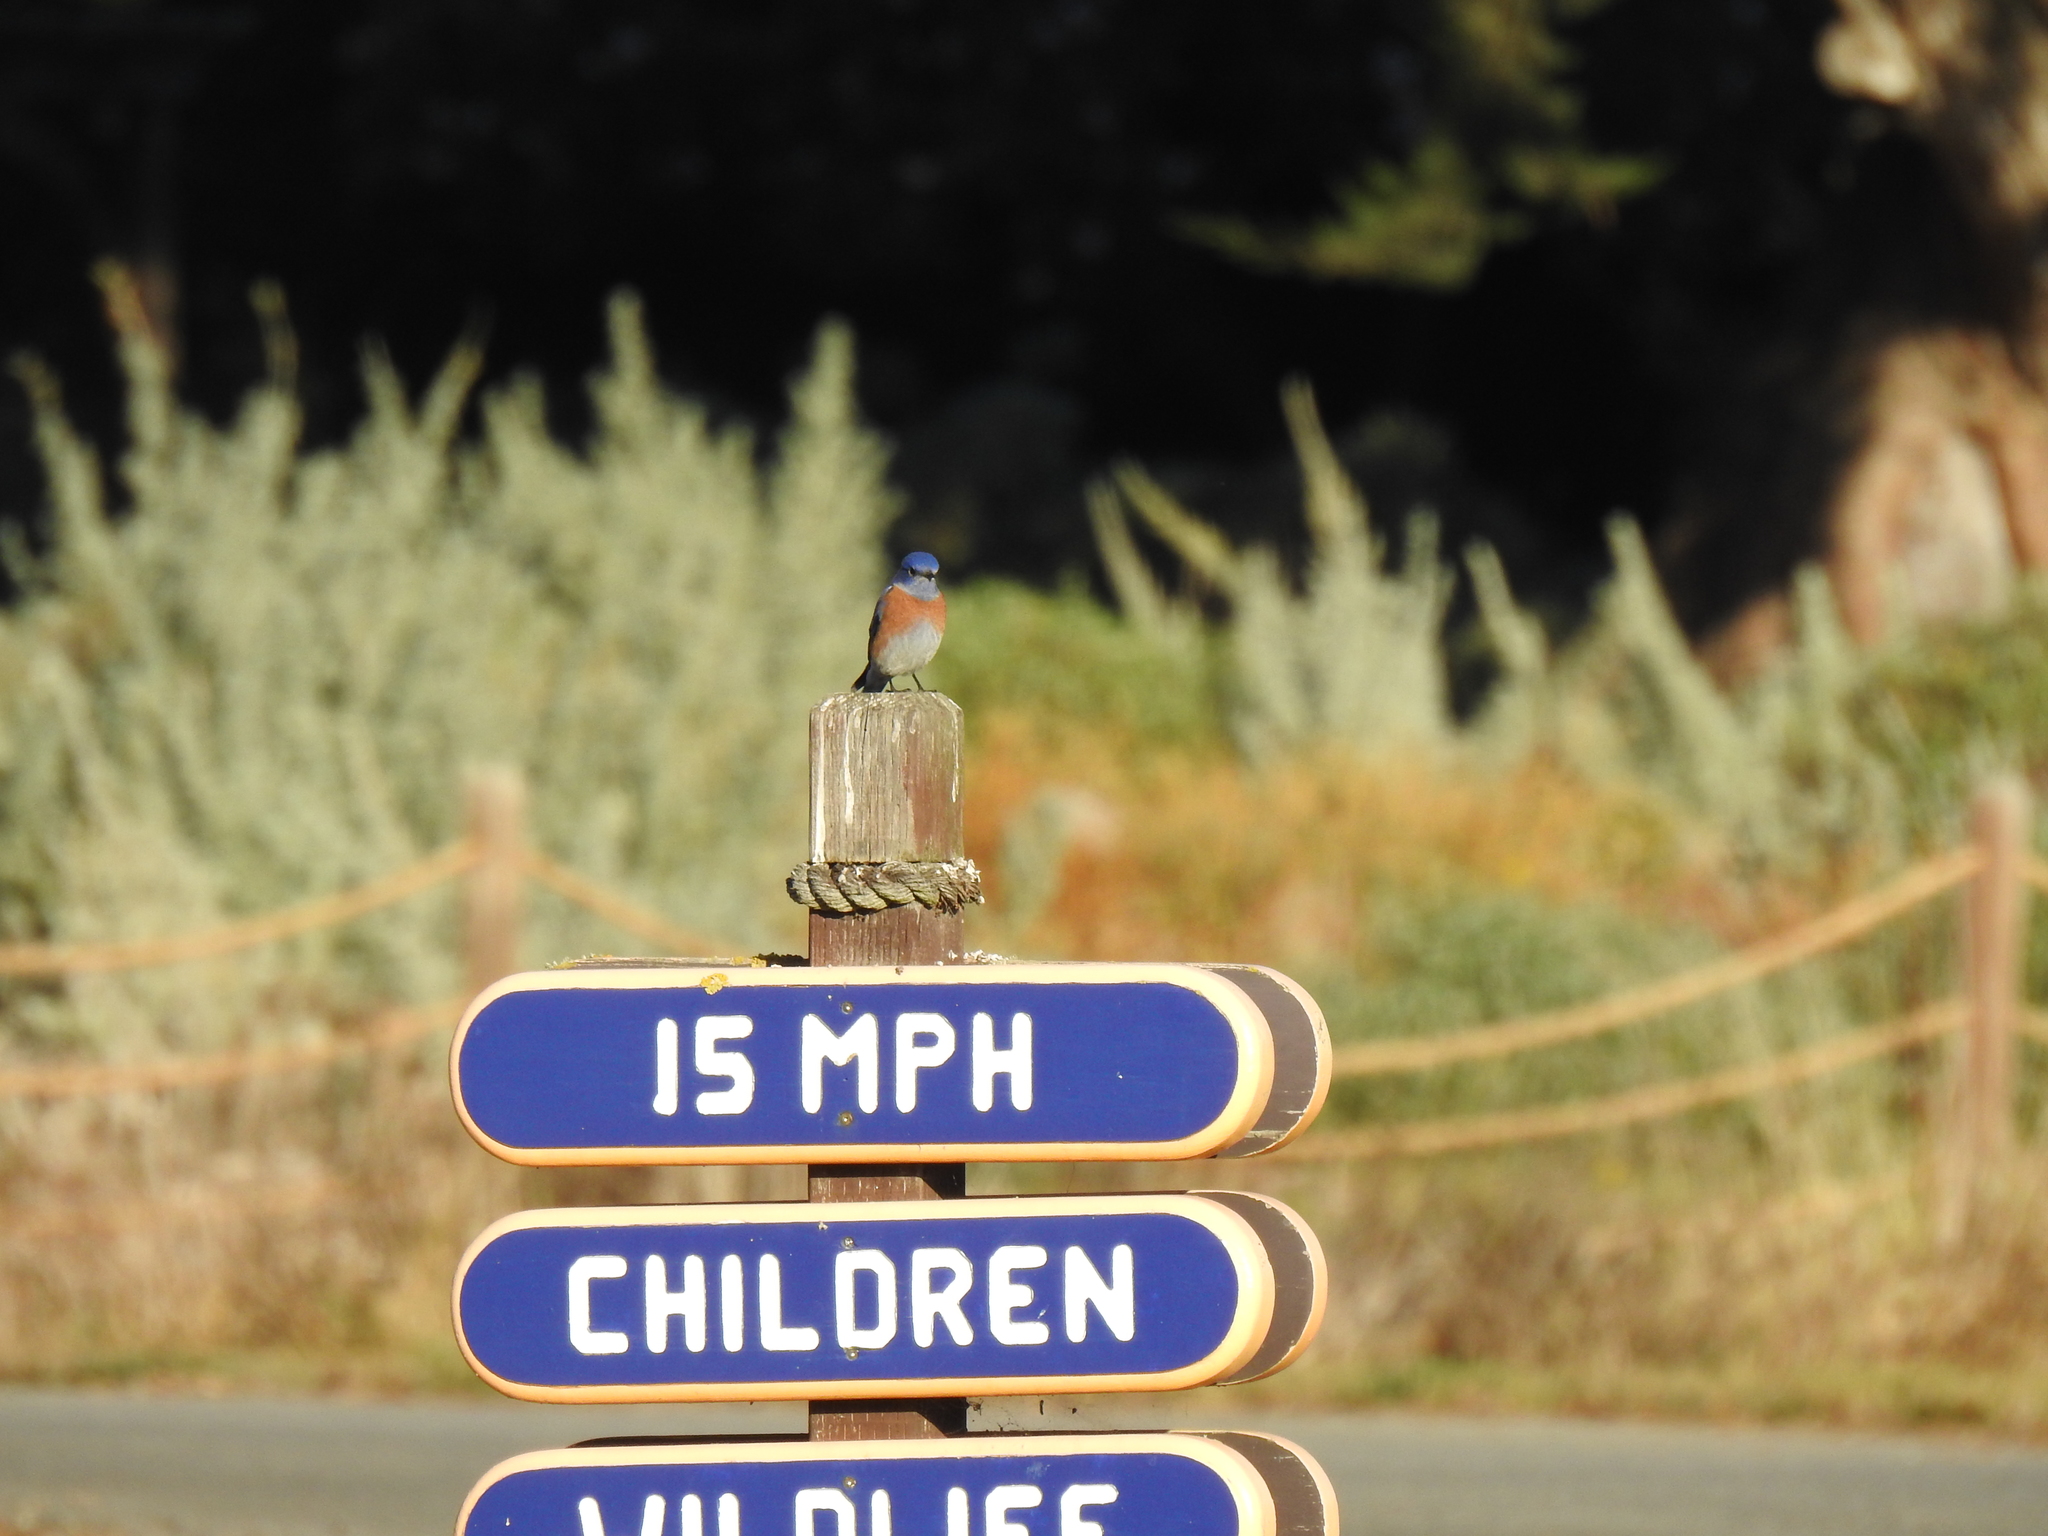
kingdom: Animalia
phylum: Chordata
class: Aves
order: Passeriformes
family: Turdidae
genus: Sialia
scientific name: Sialia mexicana
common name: Western bluebird
